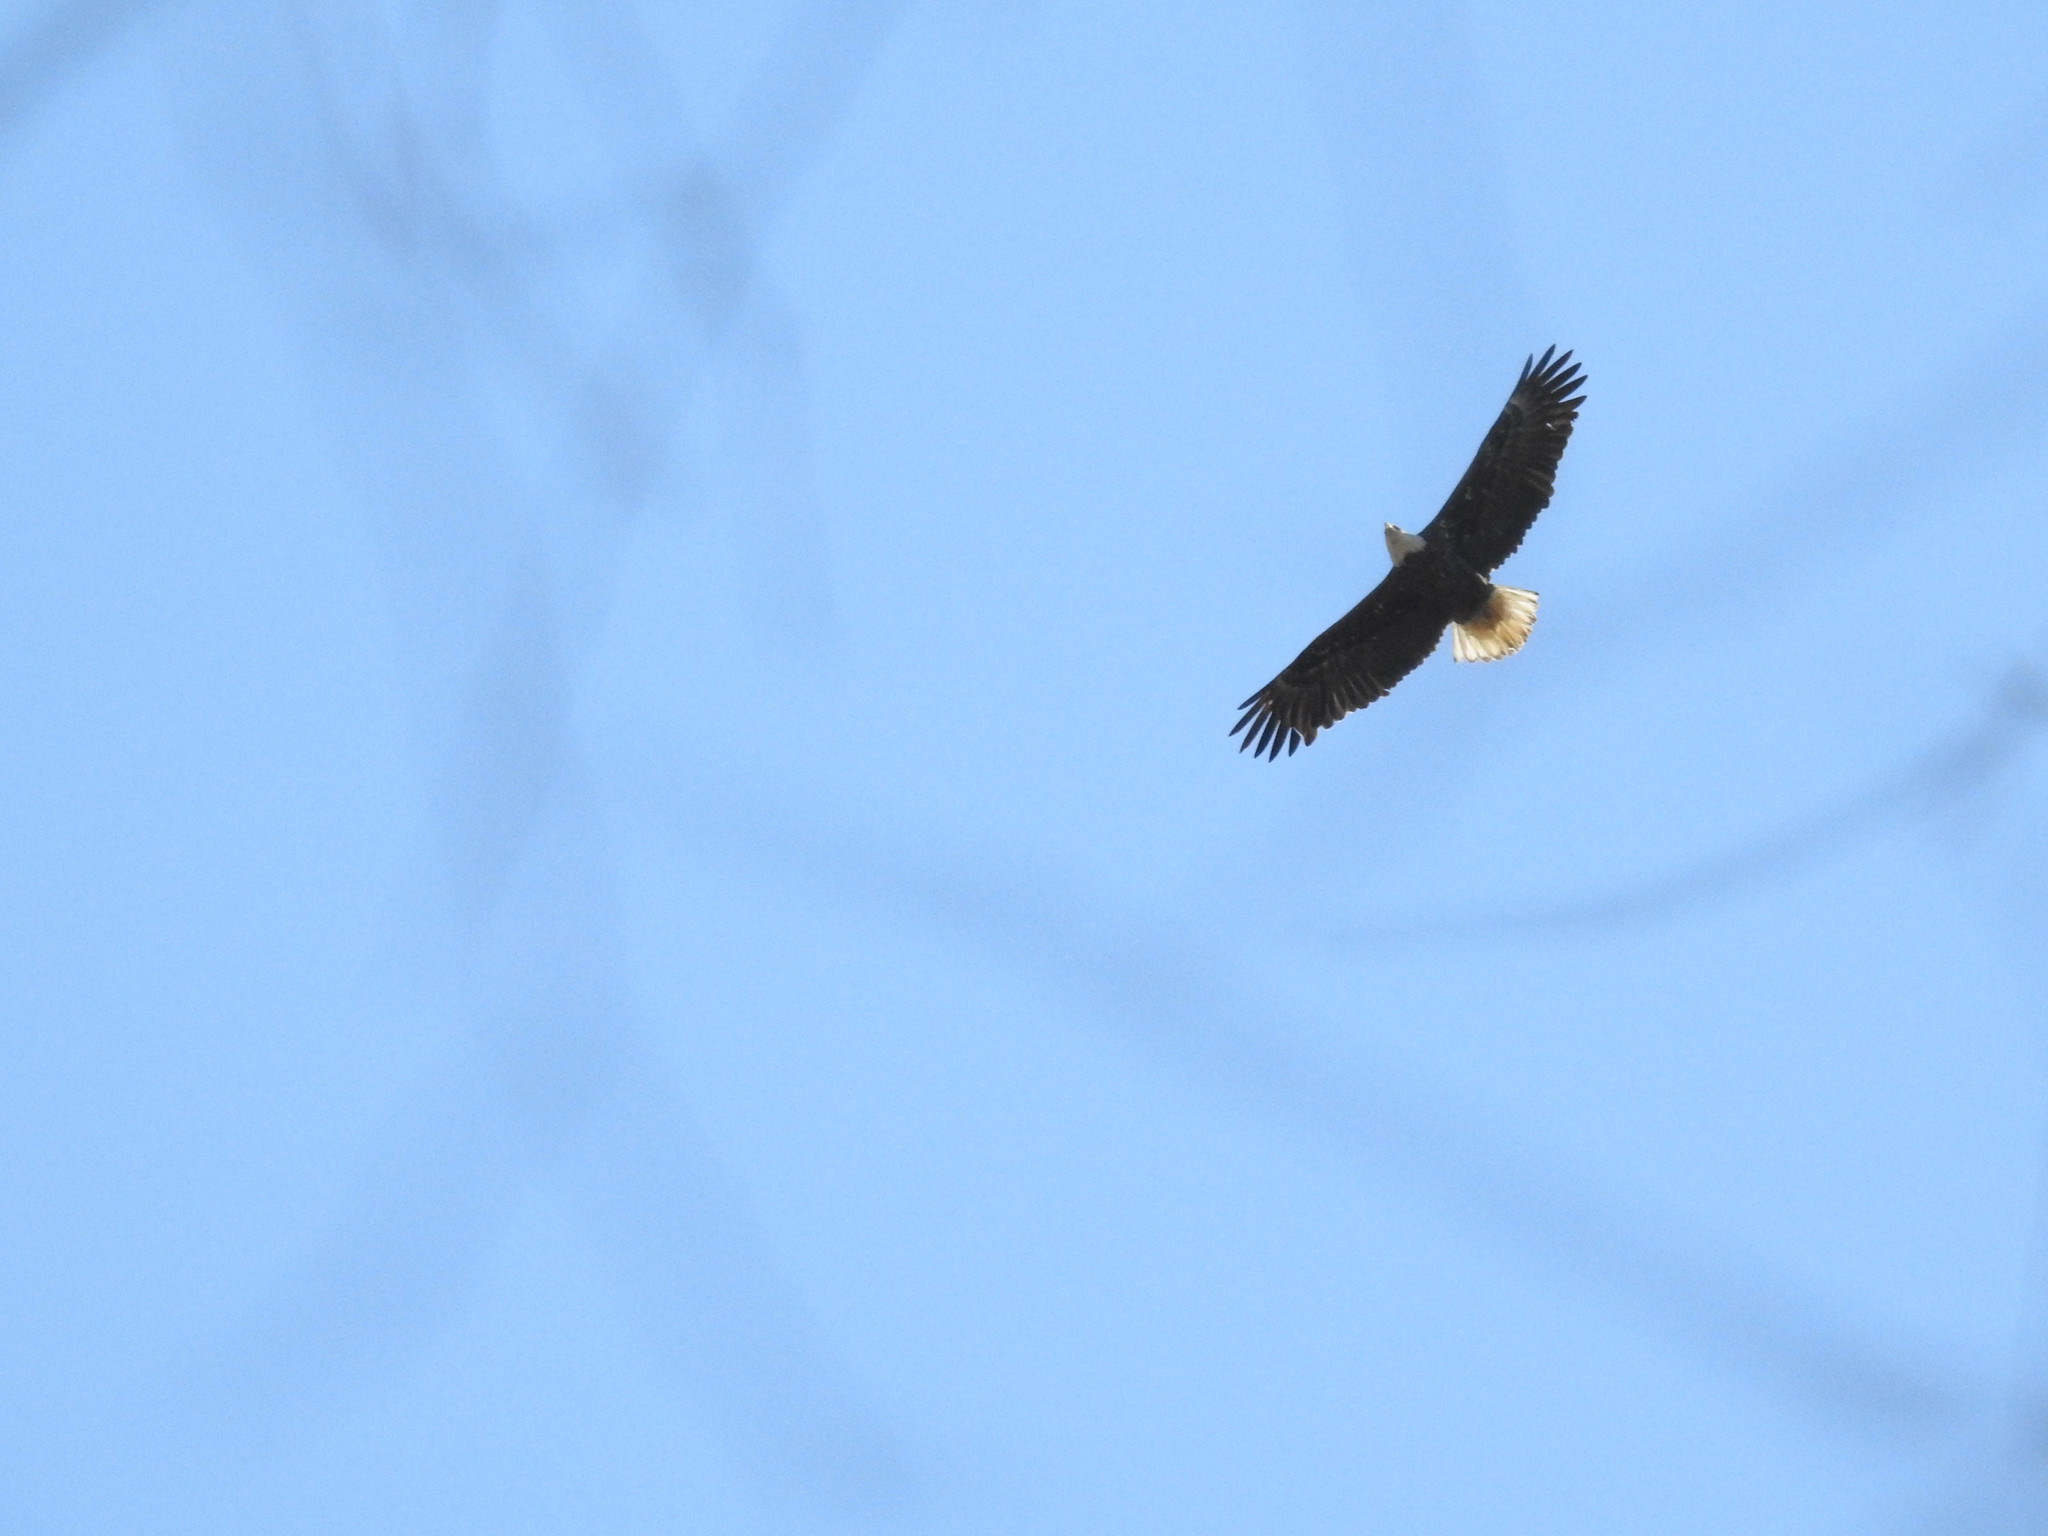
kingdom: Animalia
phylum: Chordata
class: Aves
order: Accipitriformes
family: Accipitridae
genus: Haliaeetus
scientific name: Haliaeetus leucocephalus
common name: Bald eagle
